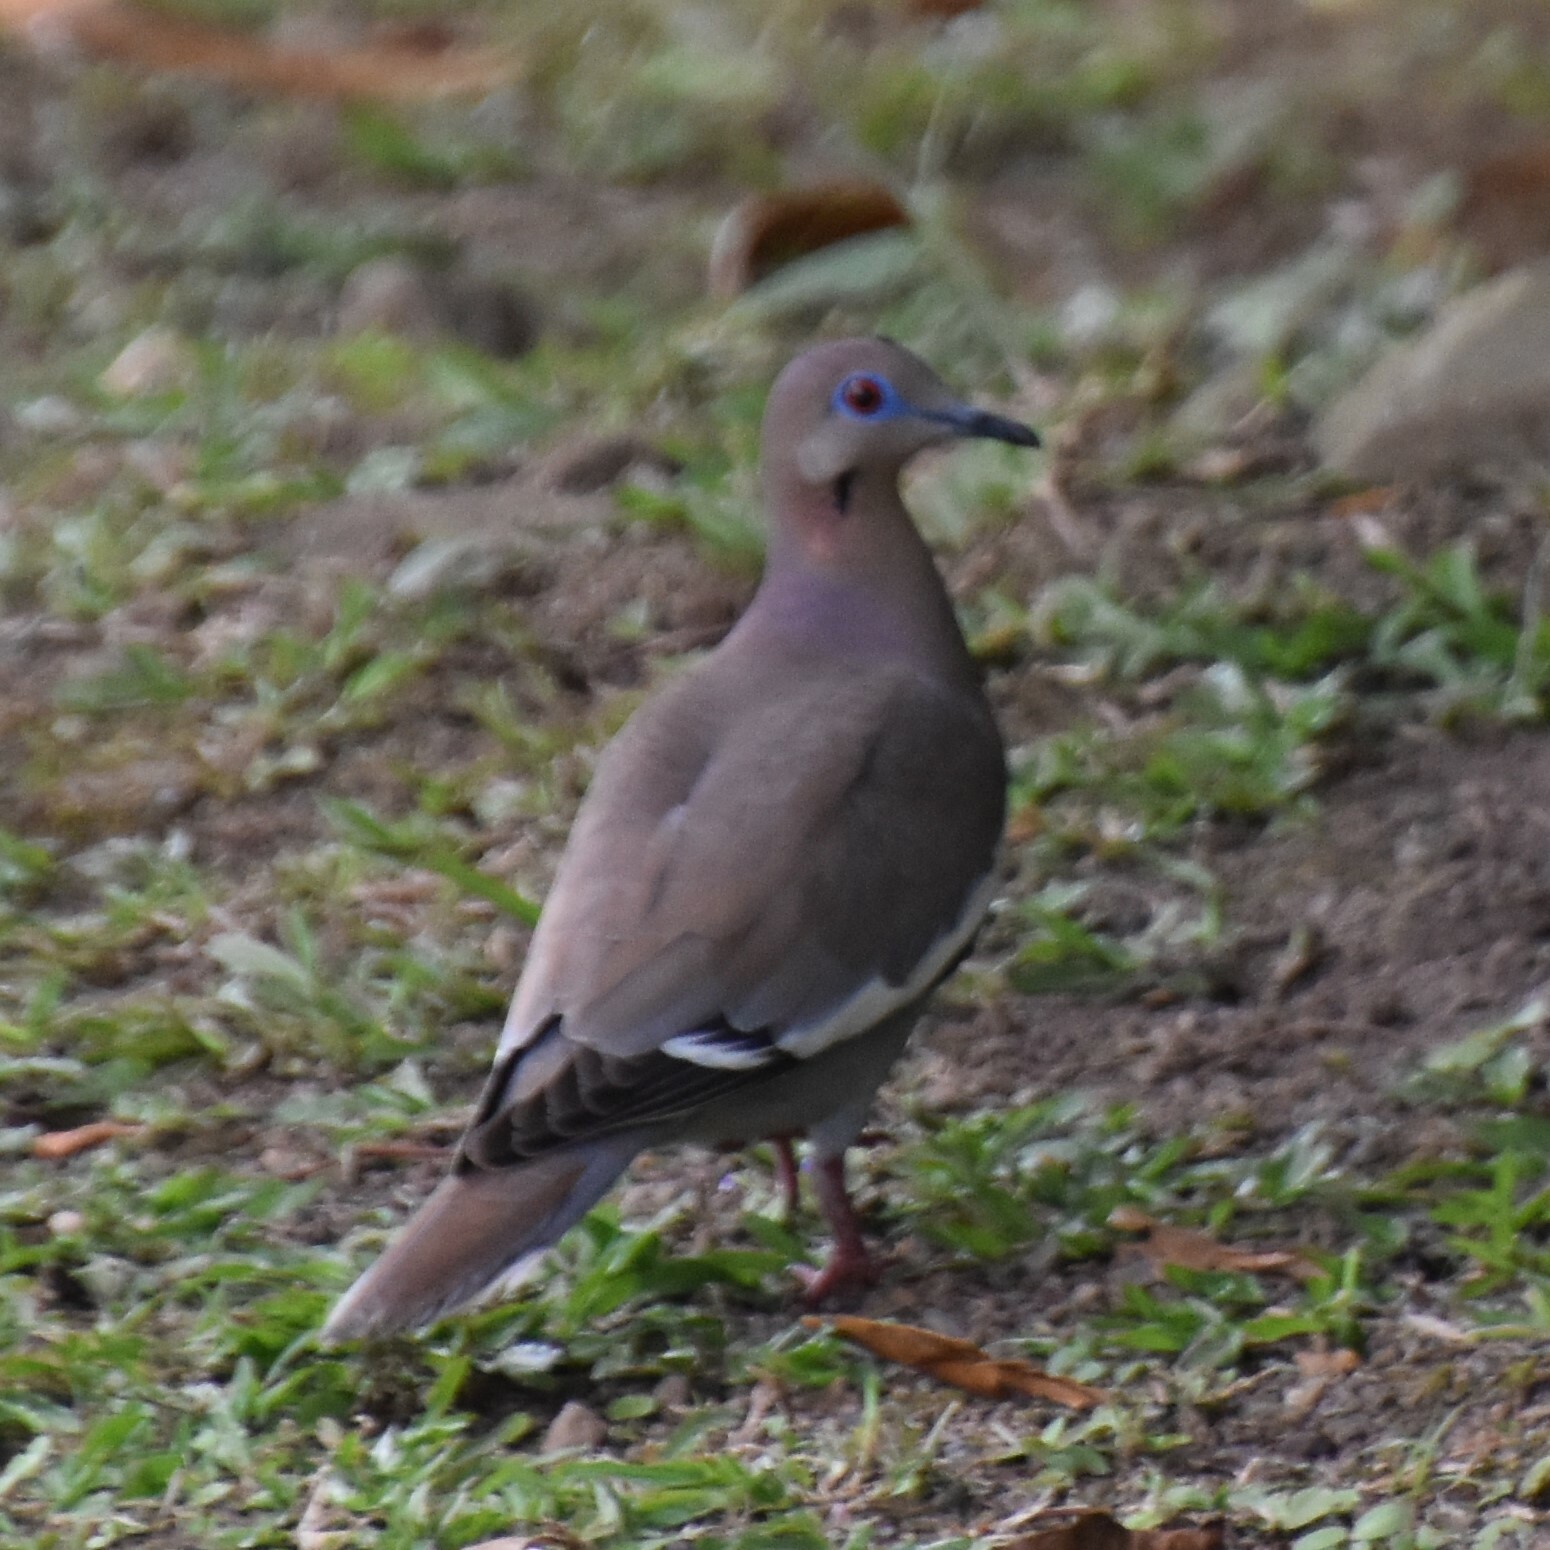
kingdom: Animalia
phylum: Chordata
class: Aves
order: Columbiformes
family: Columbidae
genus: Zenaida
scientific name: Zenaida asiatica
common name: White-winged dove
